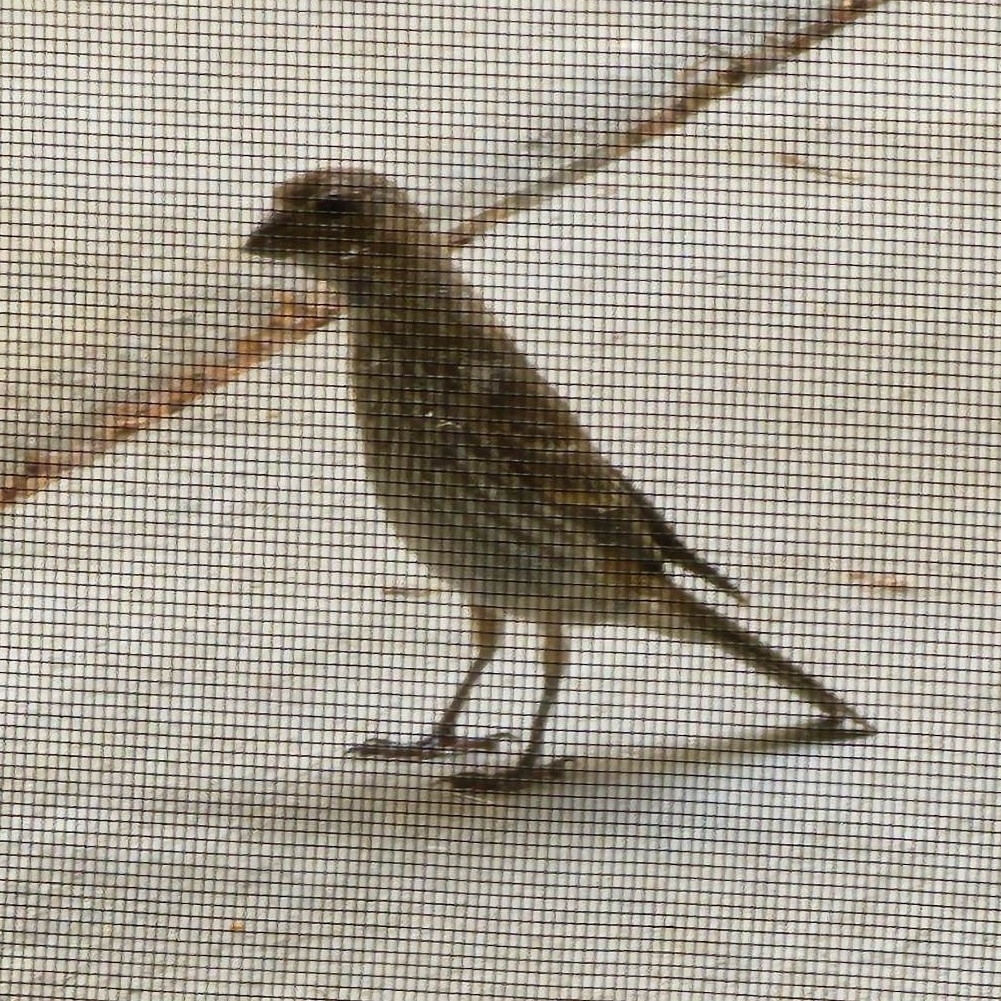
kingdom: Animalia
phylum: Chordata
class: Aves
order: Passeriformes
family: Fringillidae
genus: Haemorhous
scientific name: Haemorhous mexicanus
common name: House finch
